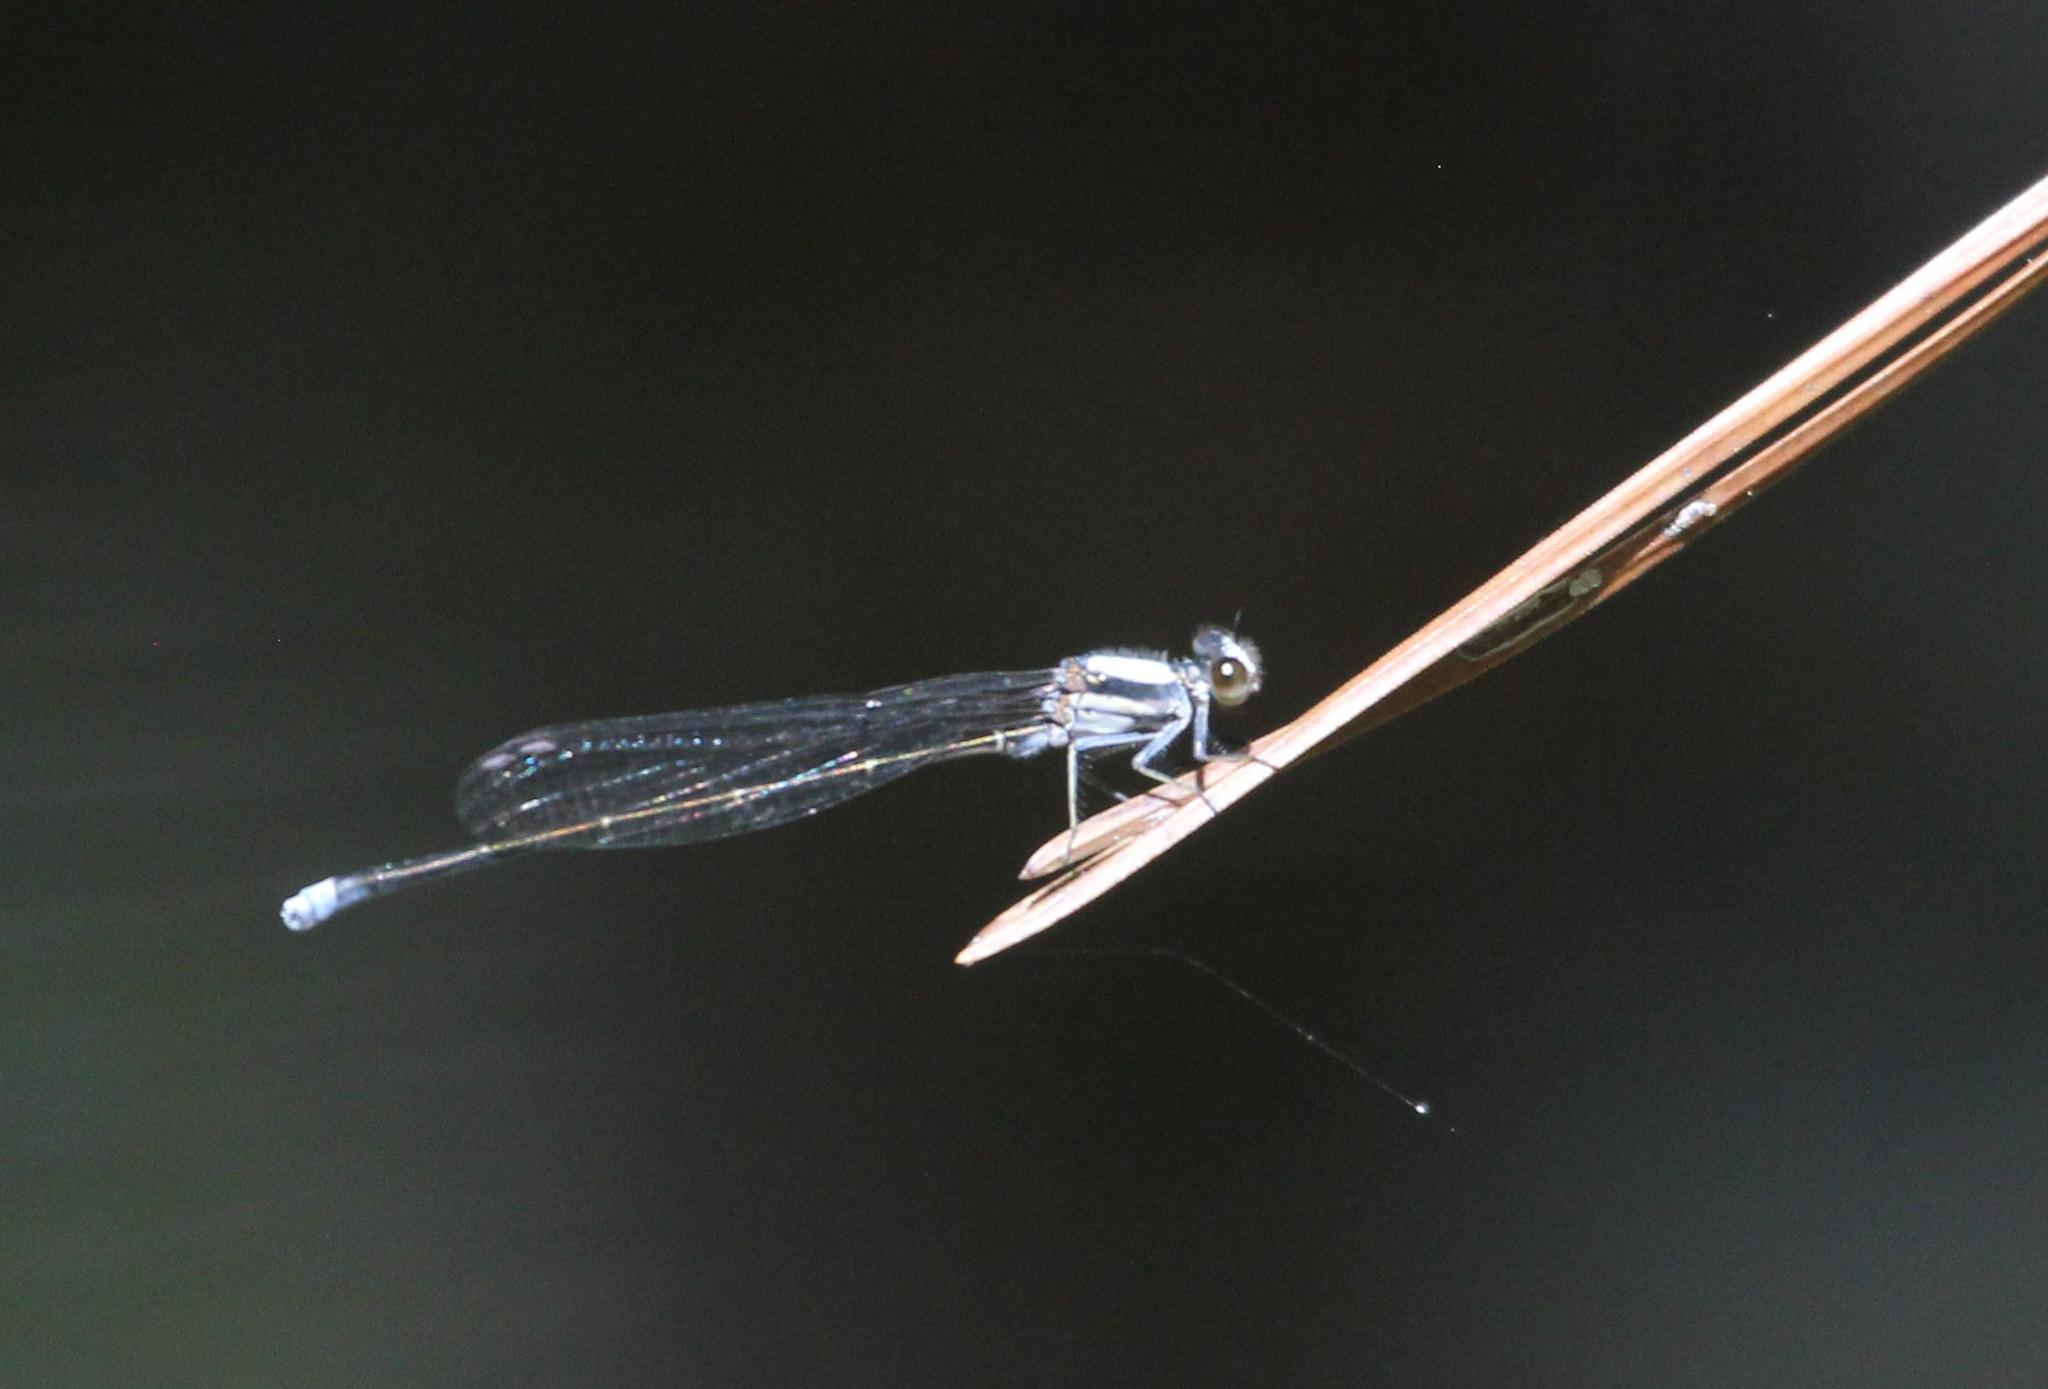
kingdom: Animalia
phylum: Arthropoda
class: Insecta
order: Odonata
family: Coenagrionidae
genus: Argia
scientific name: Argia moesta
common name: Powdered dancer
